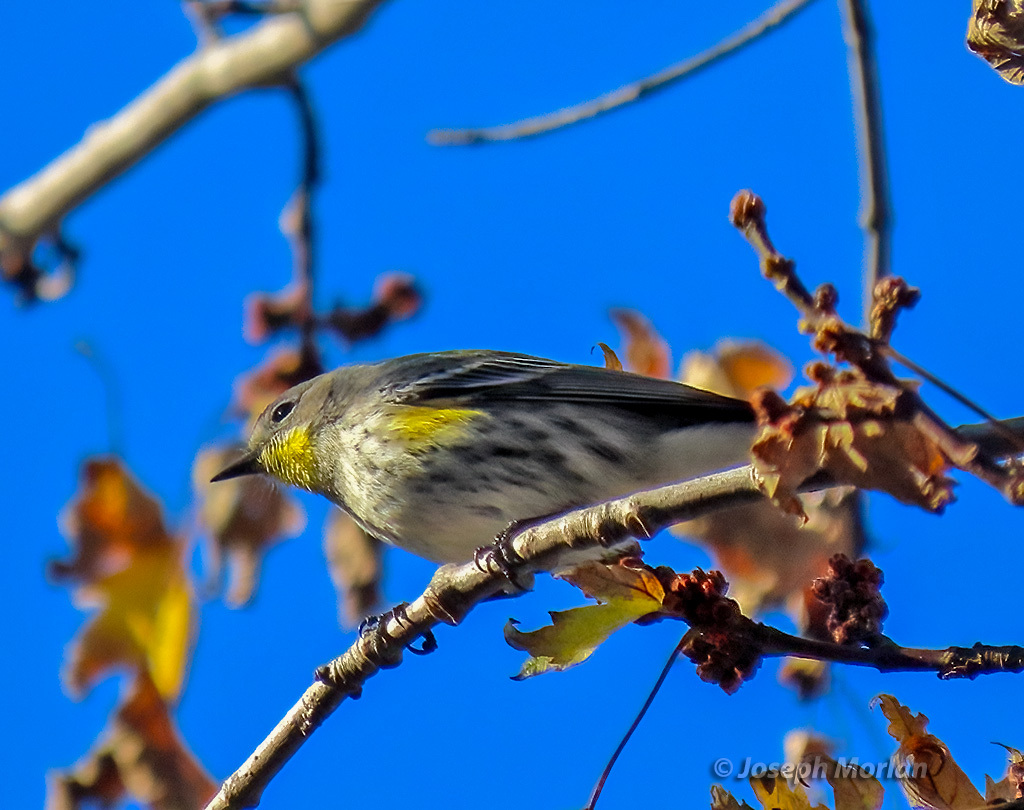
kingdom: Animalia
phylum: Chordata
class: Aves
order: Passeriformes
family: Parulidae
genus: Setophaga
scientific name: Setophaga coronata
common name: Myrtle warbler
